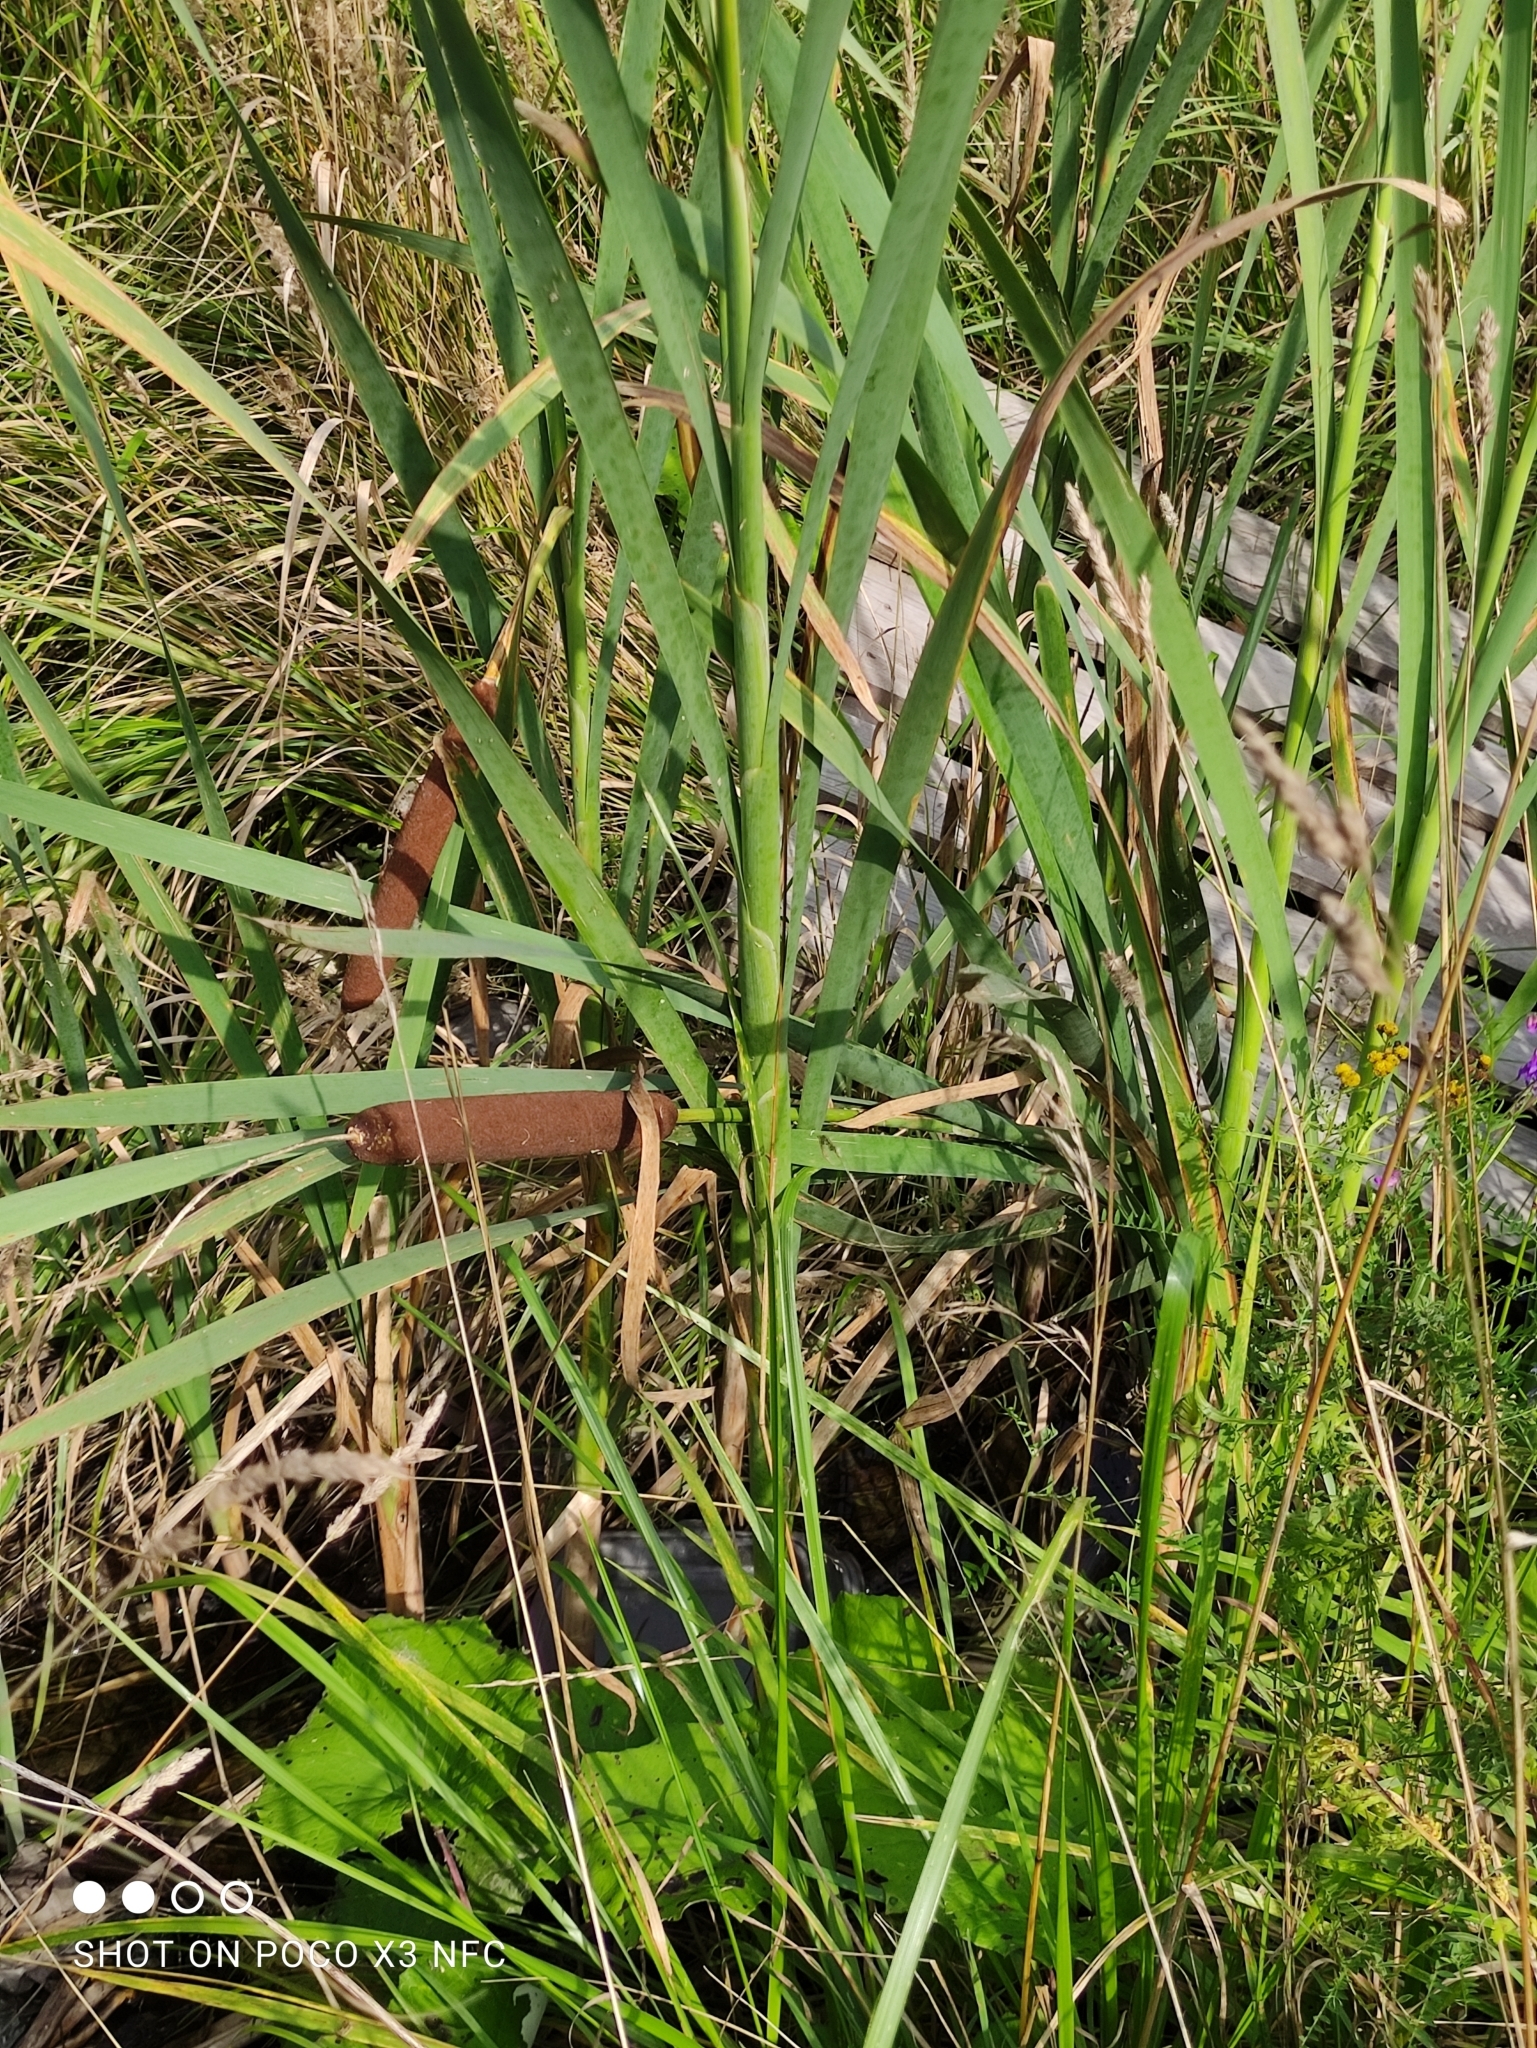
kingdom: Plantae
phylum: Tracheophyta
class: Liliopsida
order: Poales
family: Typhaceae
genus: Typha
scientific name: Typha latifolia
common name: Broadleaf cattail
